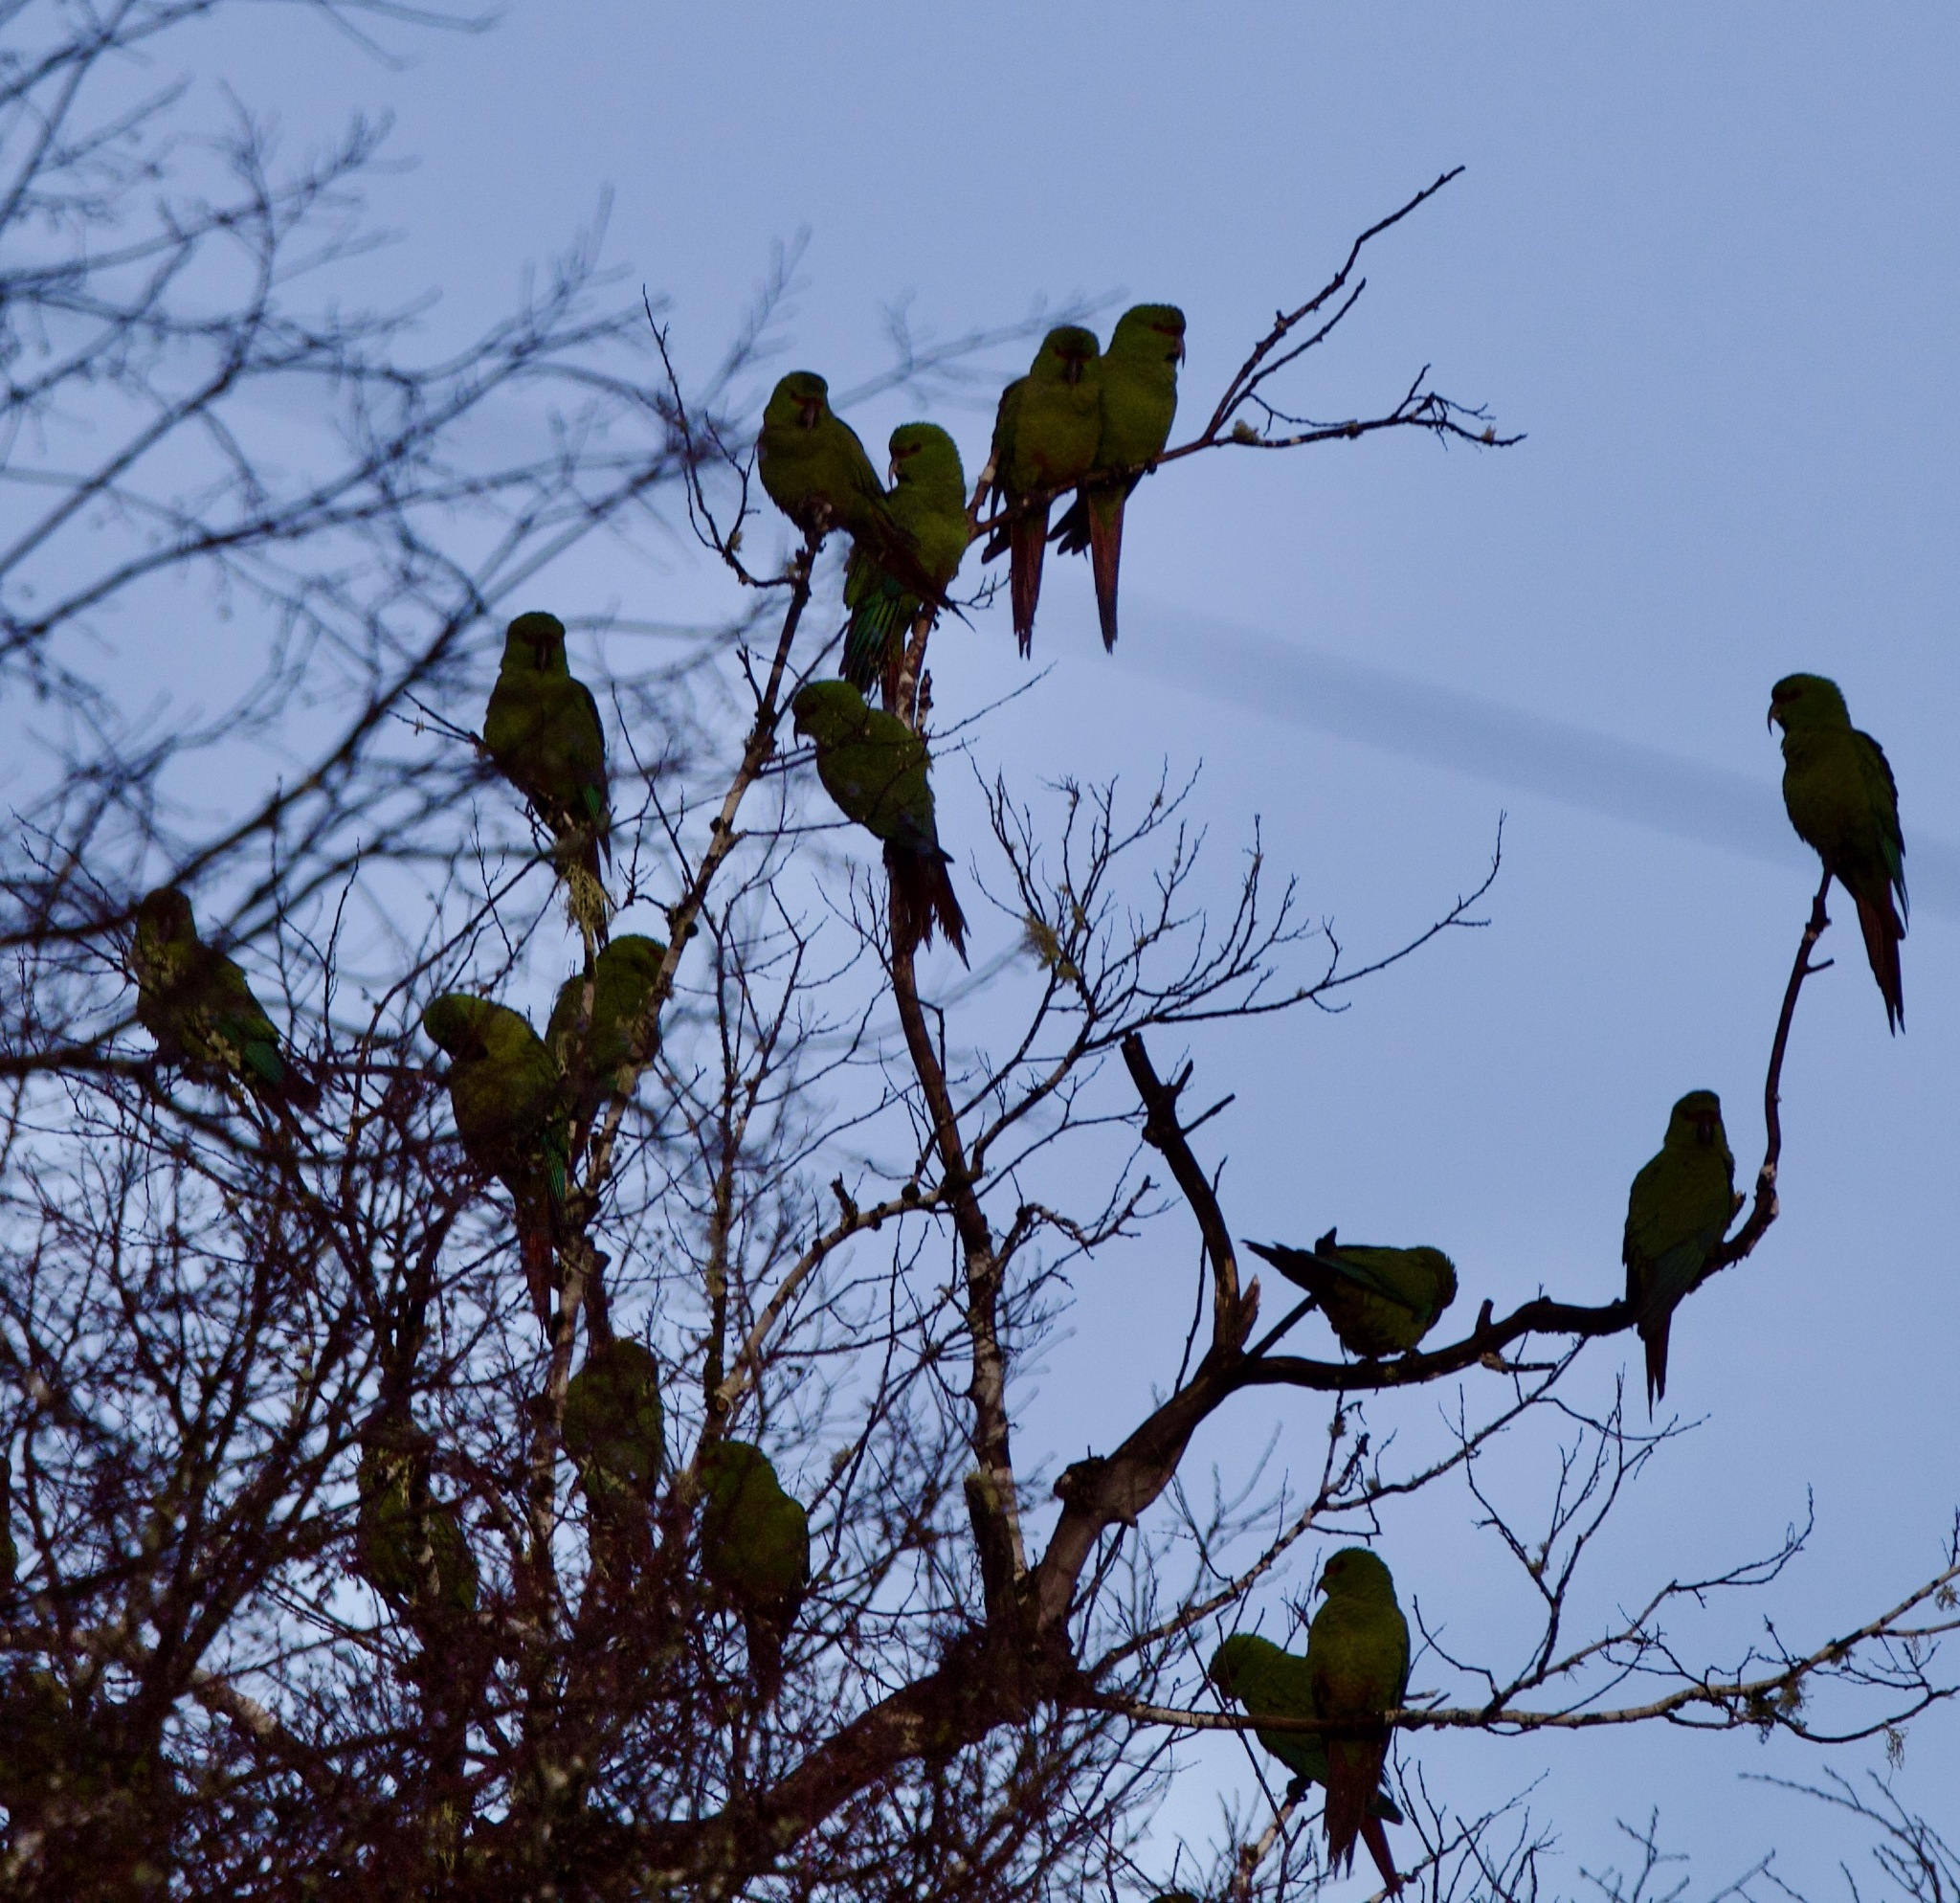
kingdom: Animalia
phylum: Chordata
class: Aves
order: Psittaciformes
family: Psittacidae
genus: Enicognathus
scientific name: Enicognathus leptorhynchus
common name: Slender-billed parakeet
